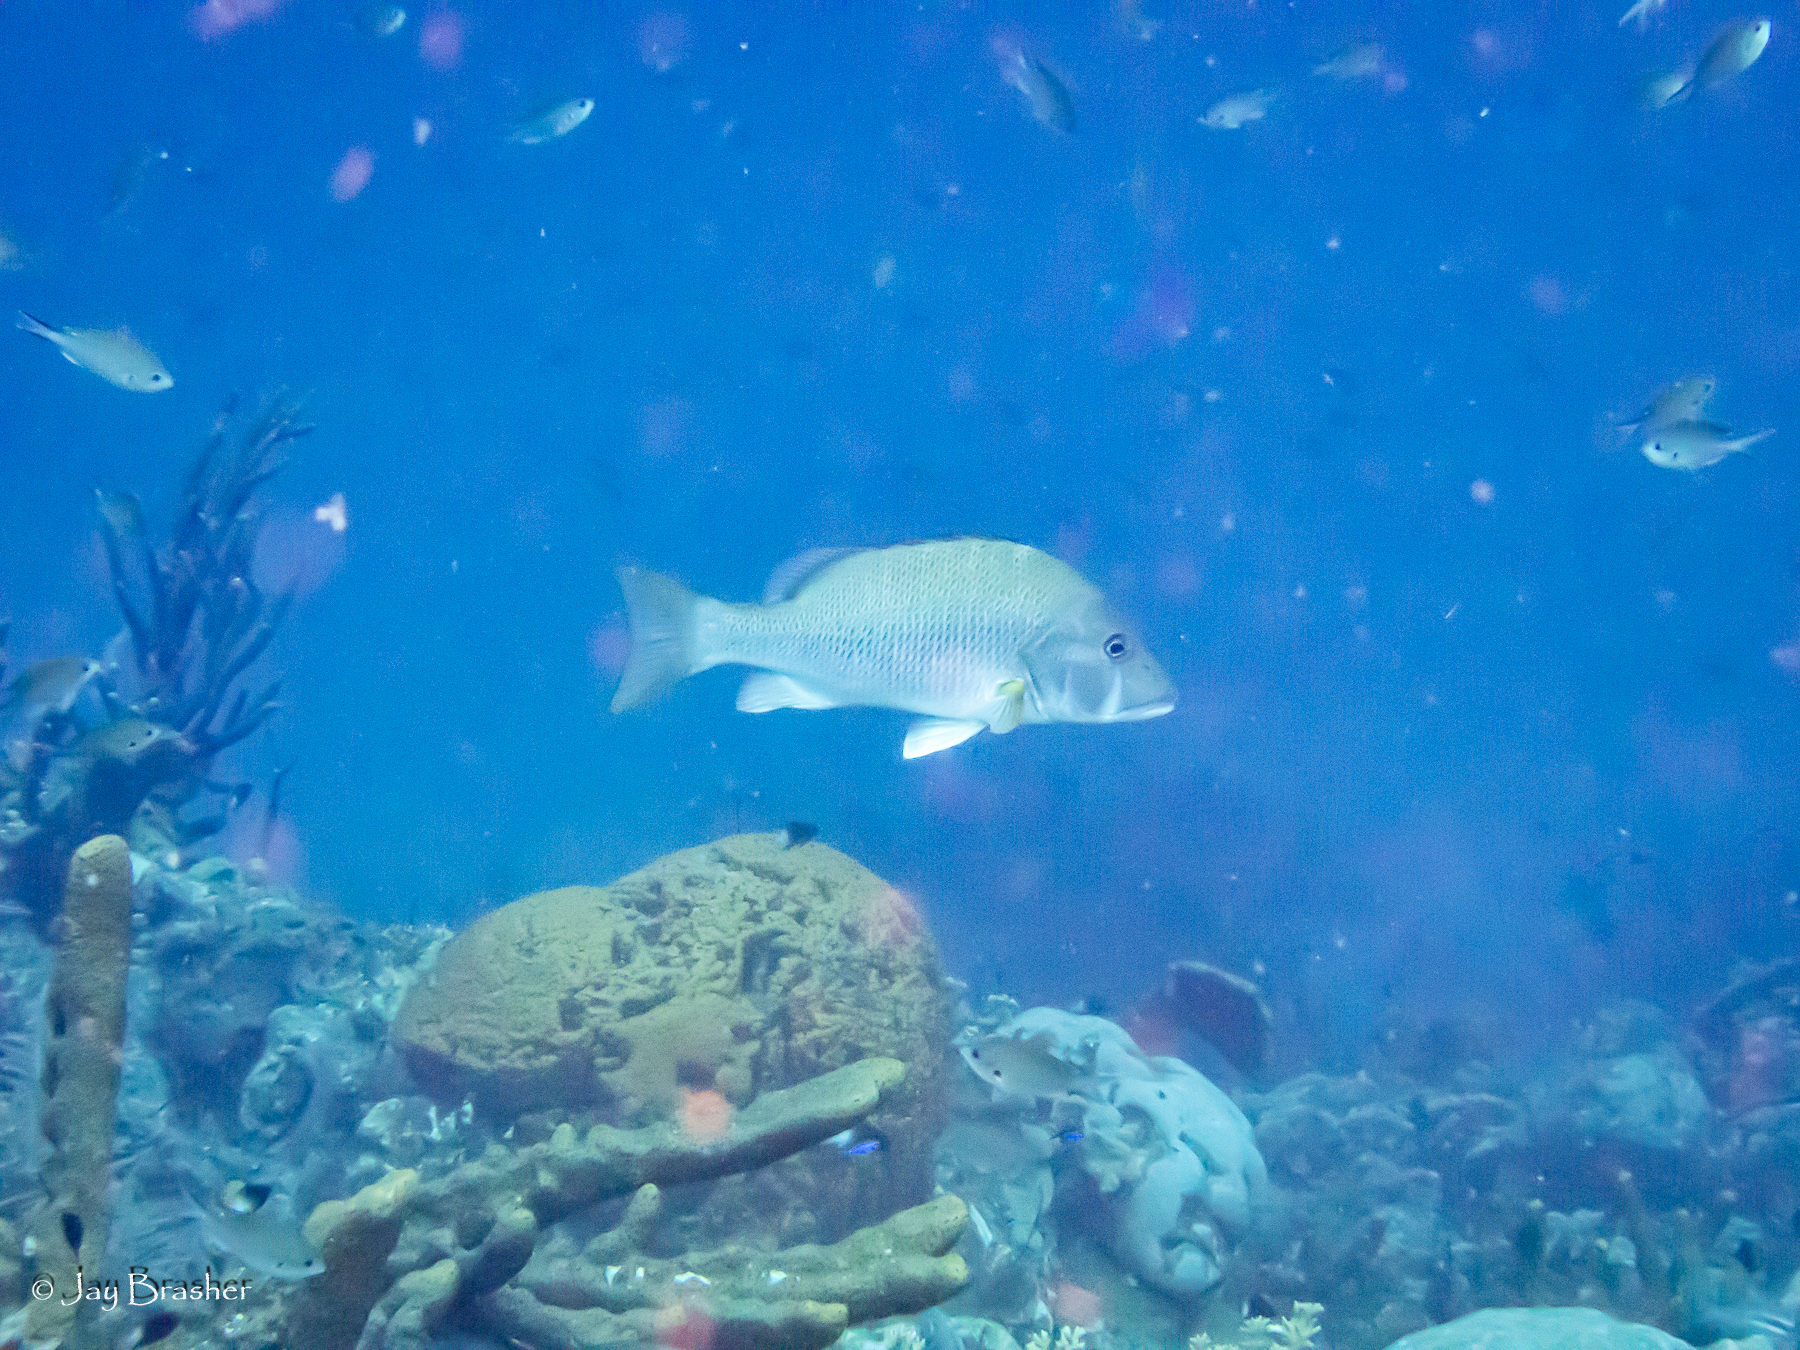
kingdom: Animalia
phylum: Chordata
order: Perciformes
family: Lutjanidae
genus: Lutjanus
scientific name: Lutjanus jocu
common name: Dog snapper
